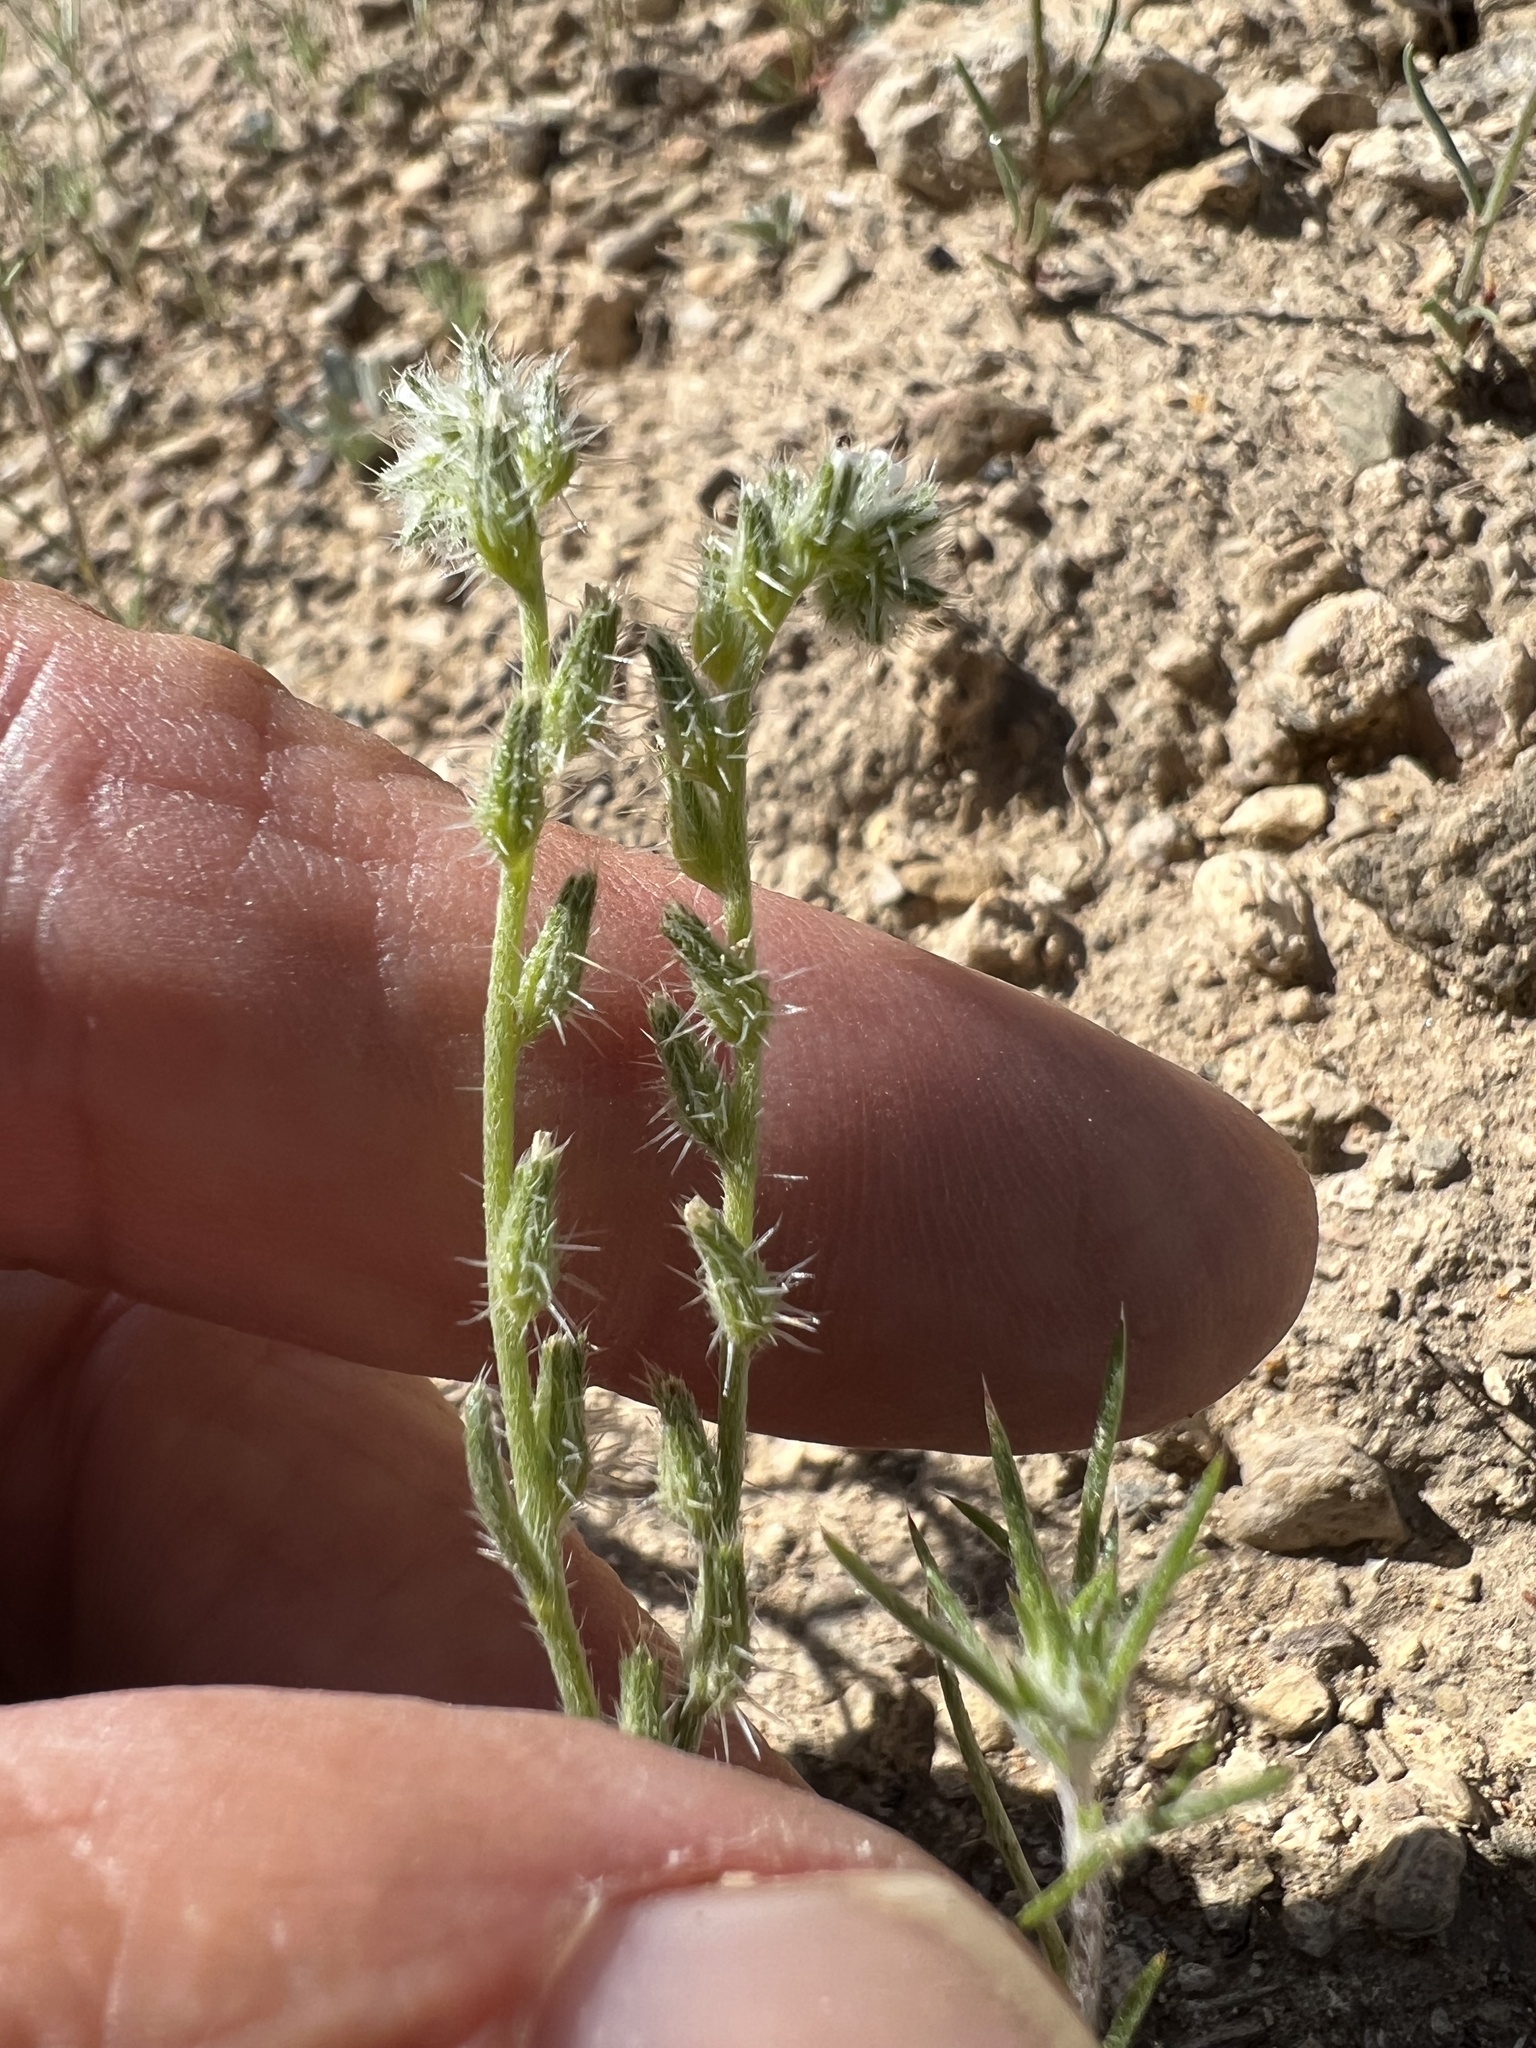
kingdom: Plantae
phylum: Tracheophyta
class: Magnoliopsida
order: Boraginales
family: Boraginaceae
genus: Cryptantha
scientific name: Cryptantha scoparia
